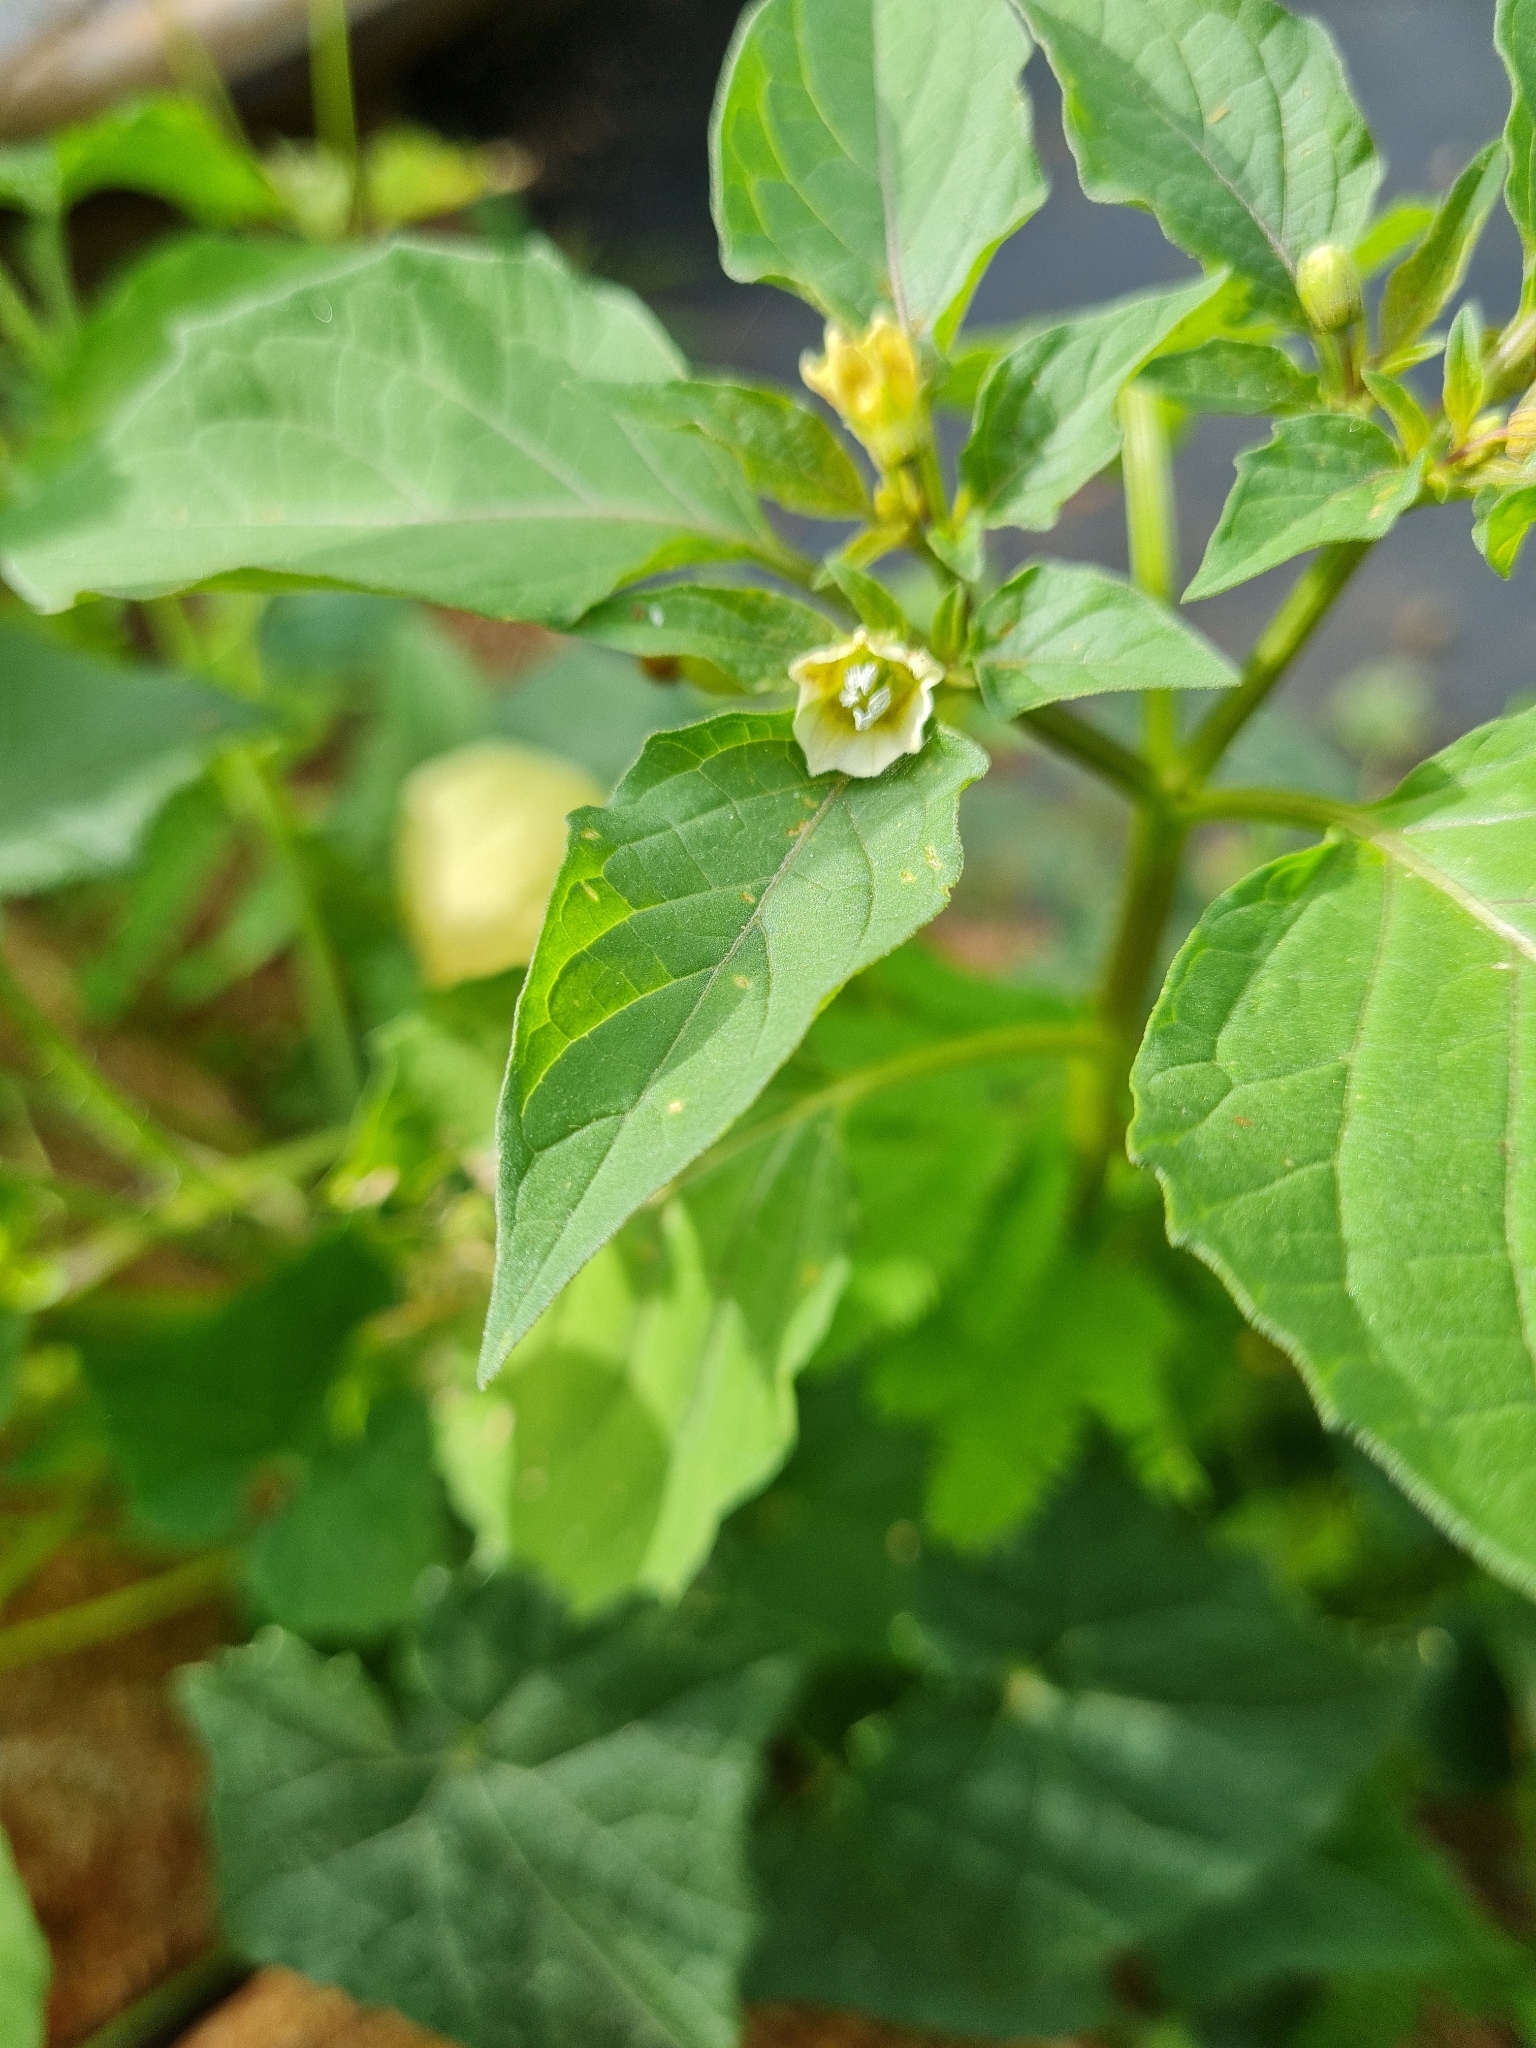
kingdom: Plantae
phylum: Tracheophyta
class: Magnoliopsida
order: Solanales
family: Solanaceae
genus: Physalis
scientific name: Physalis angulata
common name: Angular winter-cherry
